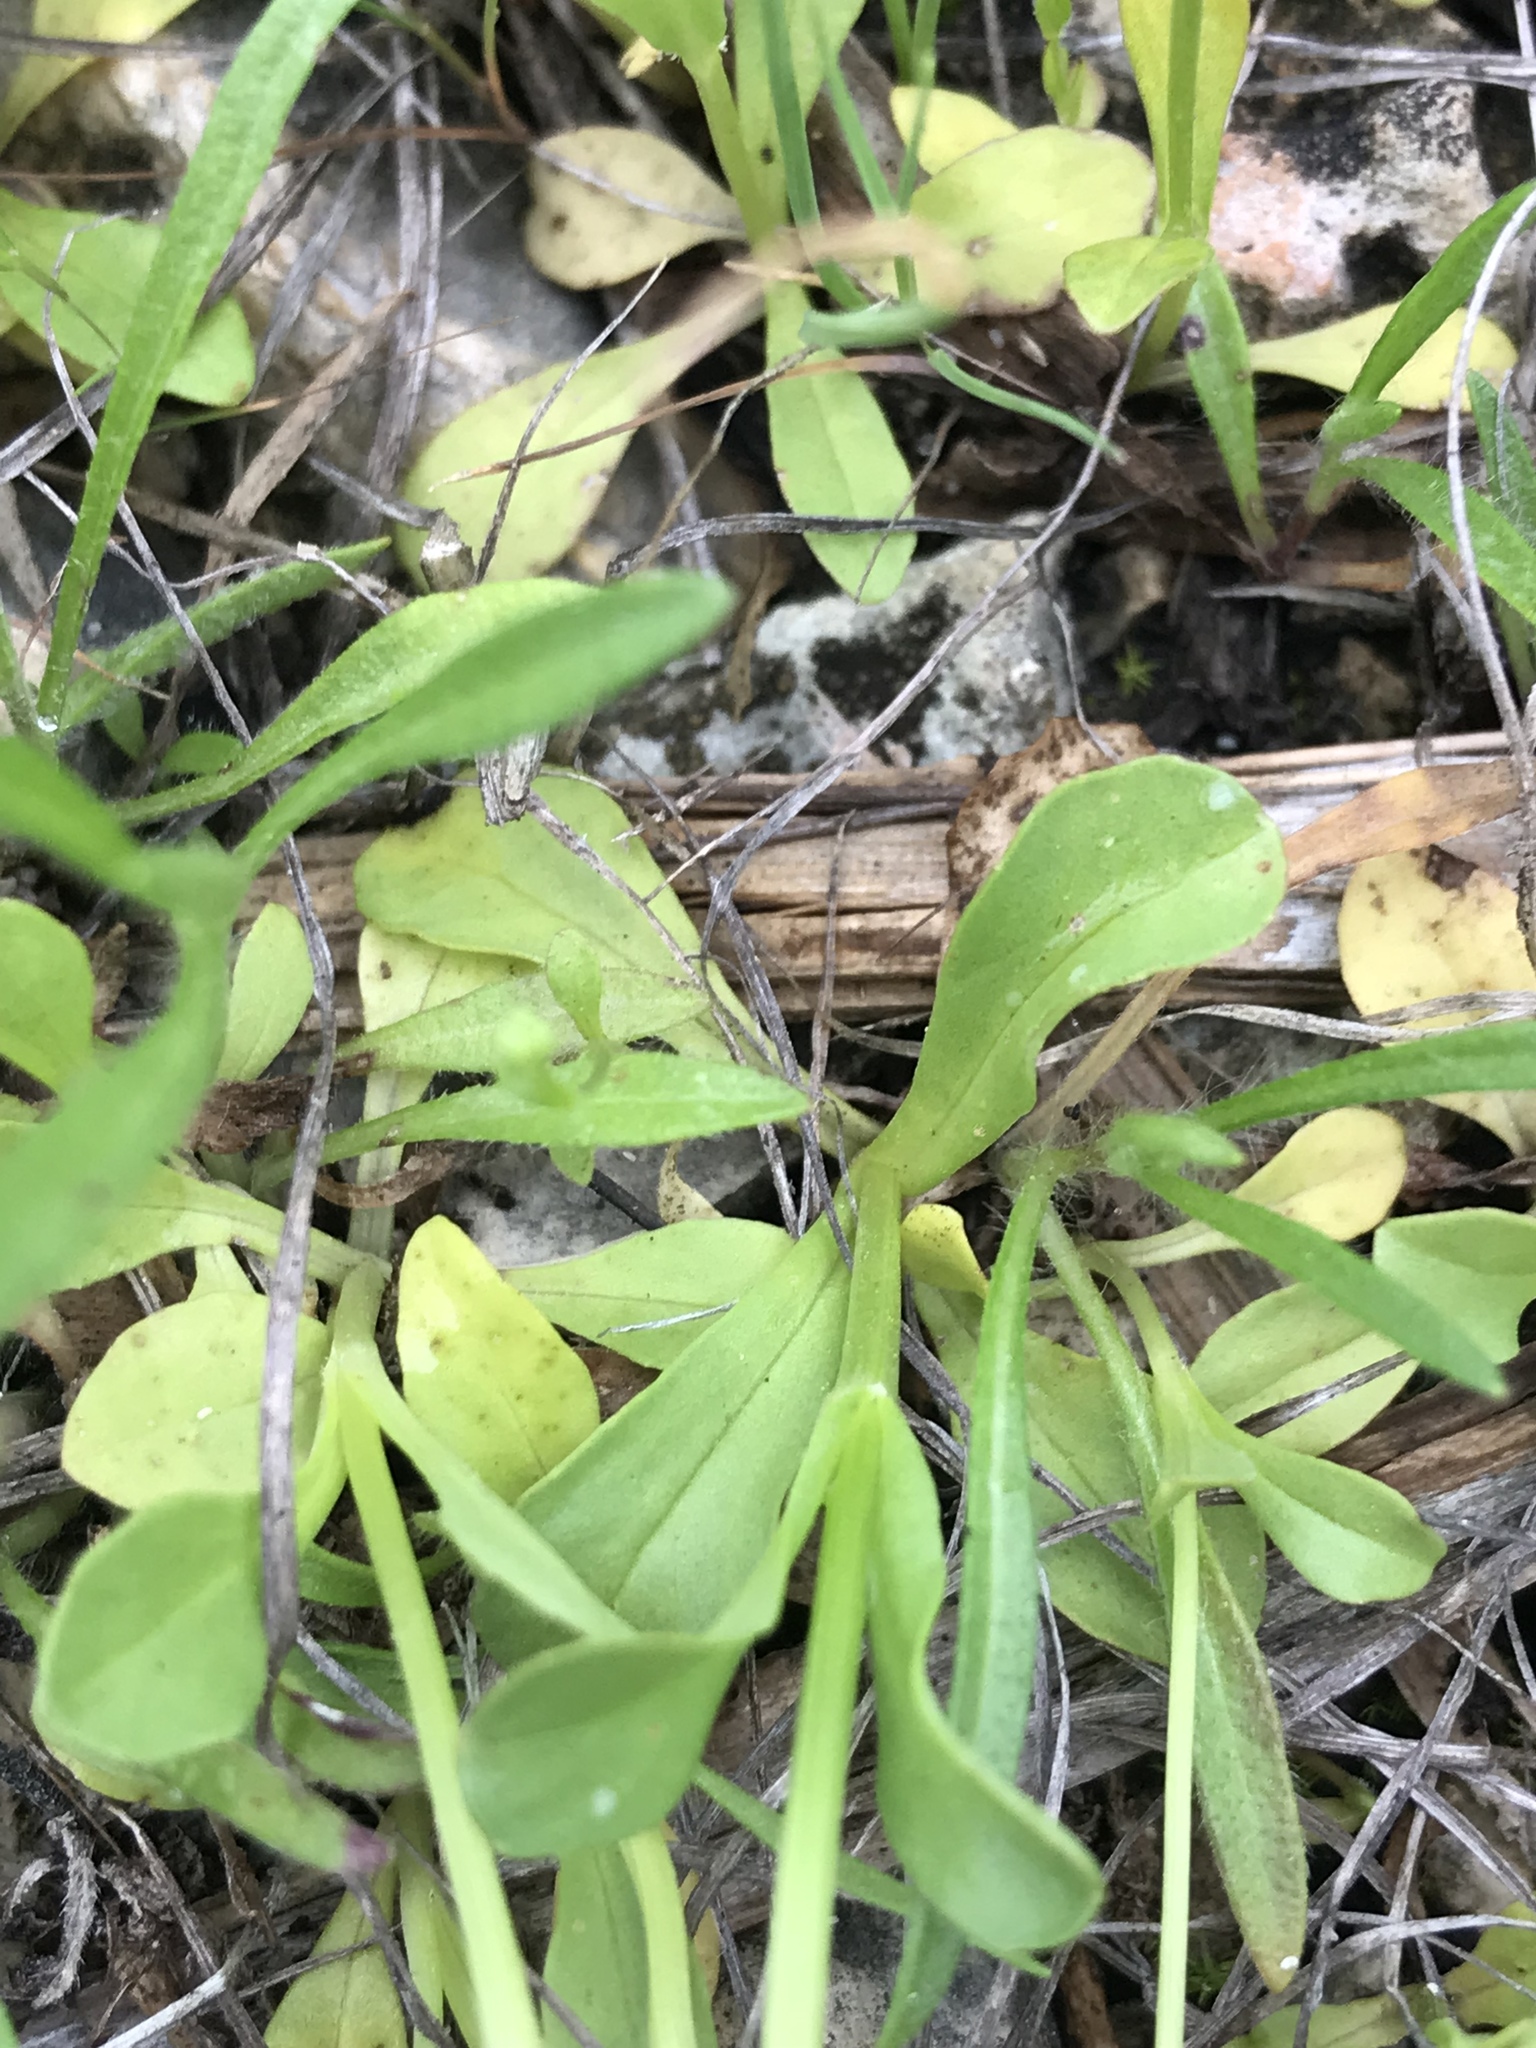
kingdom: Plantae
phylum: Tracheophyta
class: Magnoliopsida
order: Dipsacales
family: Caprifoliaceae
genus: Valerianella
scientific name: Valerianella amarella
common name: Hariy cornsalad
